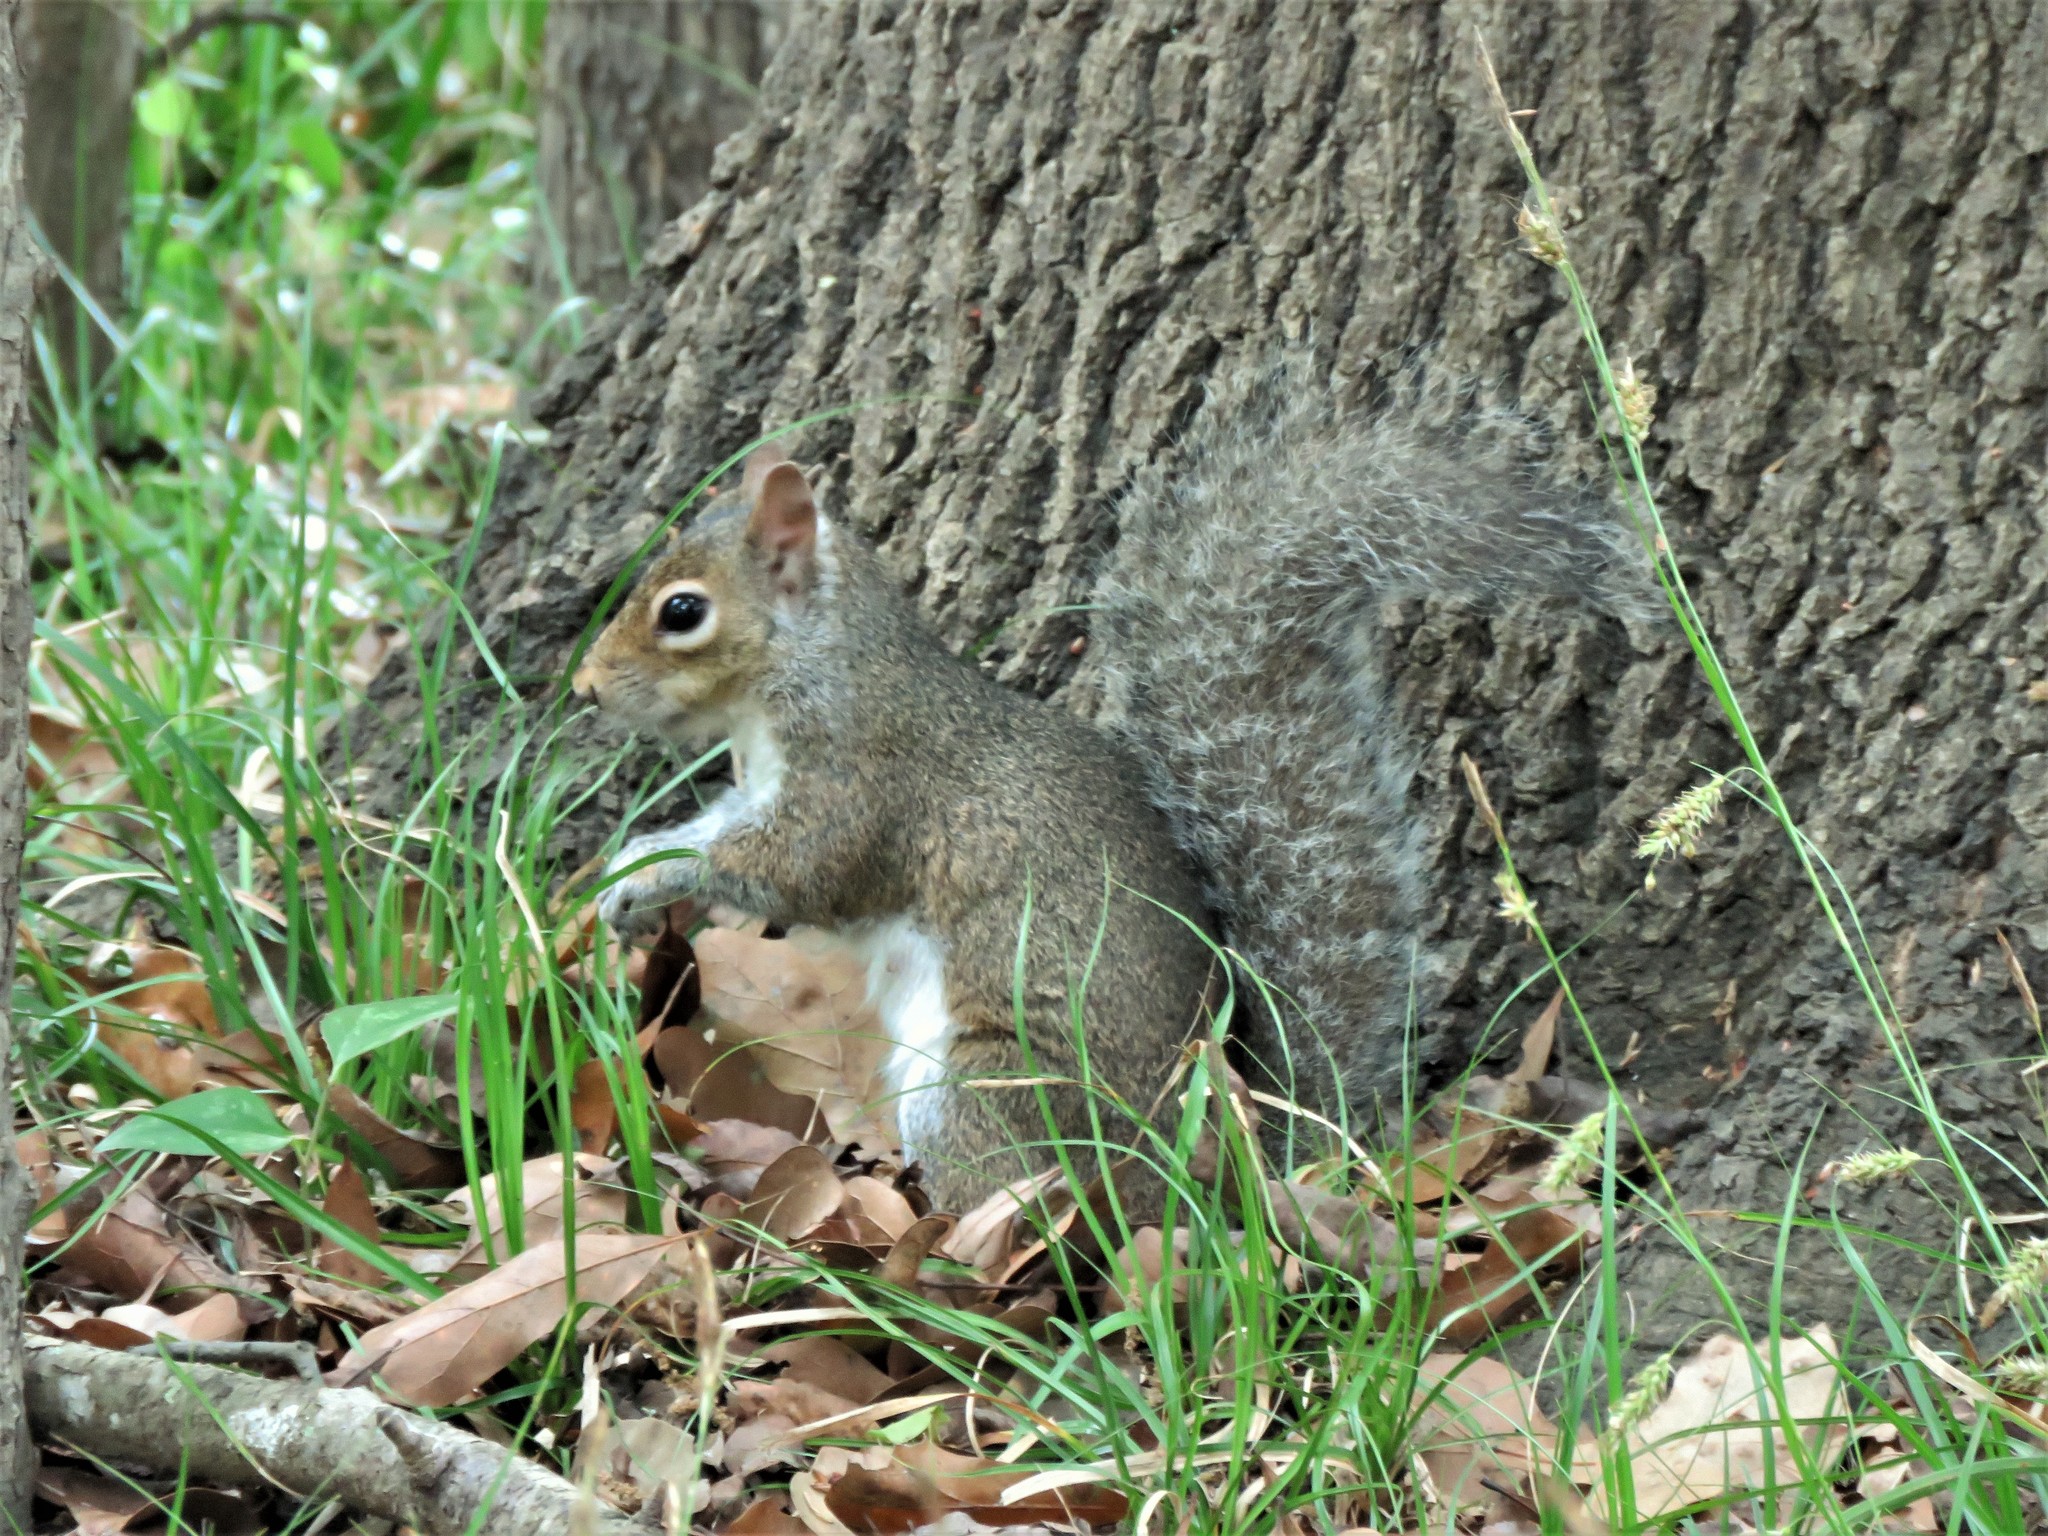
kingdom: Animalia
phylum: Chordata
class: Mammalia
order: Rodentia
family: Sciuridae
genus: Sciurus
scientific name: Sciurus carolinensis
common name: Eastern gray squirrel
